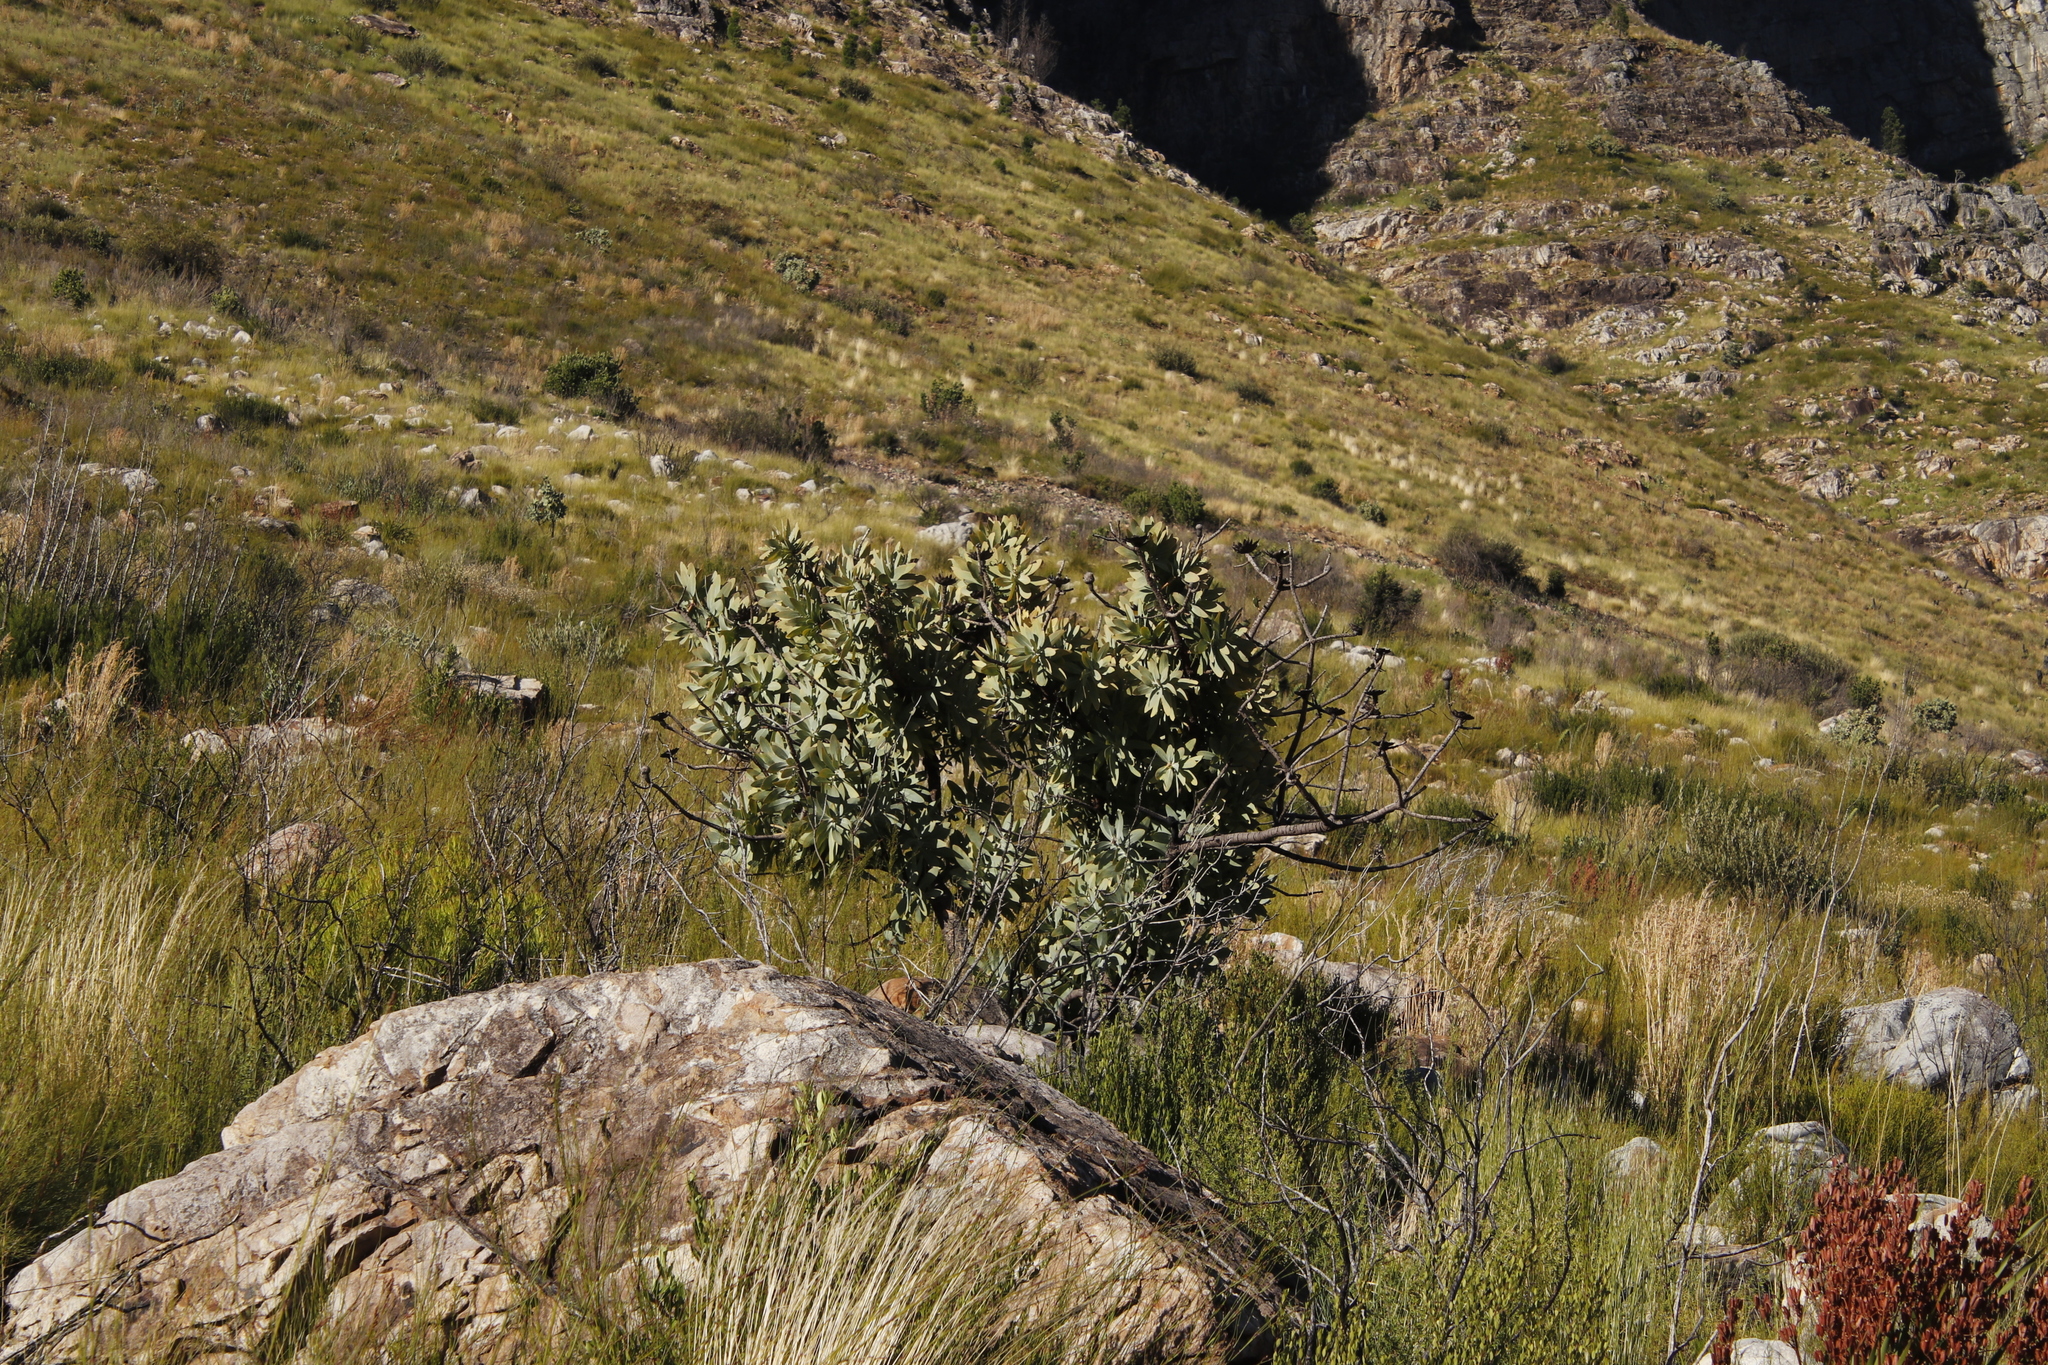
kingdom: Plantae
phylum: Tracheophyta
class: Magnoliopsida
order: Proteales
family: Proteaceae
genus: Protea
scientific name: Protea nitida
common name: Tree protea
